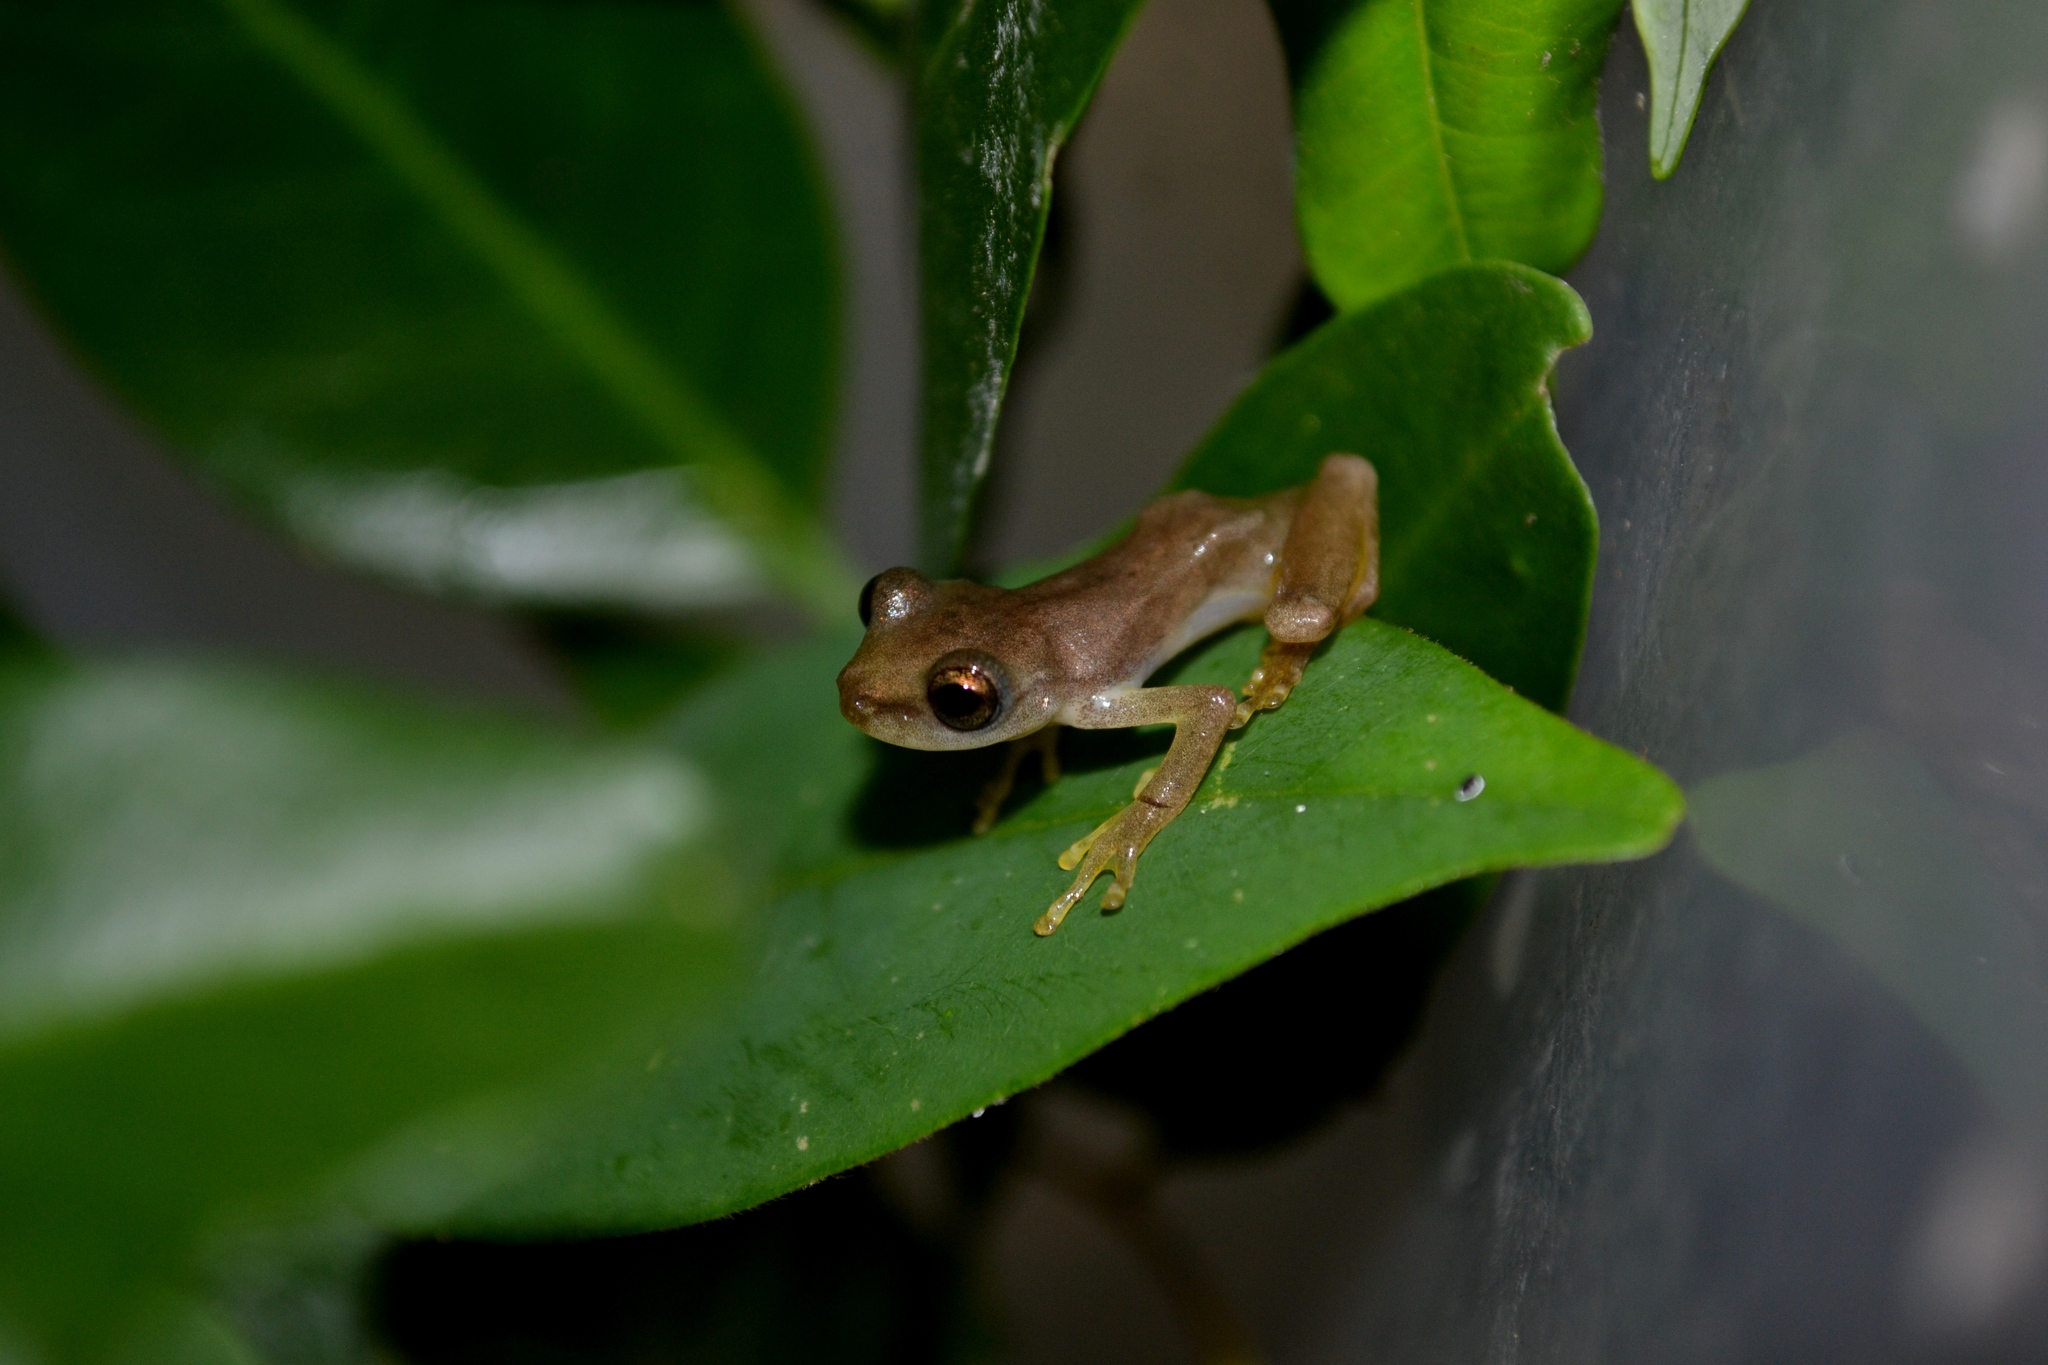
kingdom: Animalia
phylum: Chordata
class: Amphibia
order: Anura
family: Hylidae
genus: Exerodonta
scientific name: Exerodonta sumichrasti
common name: Sumichrast's treefrog
